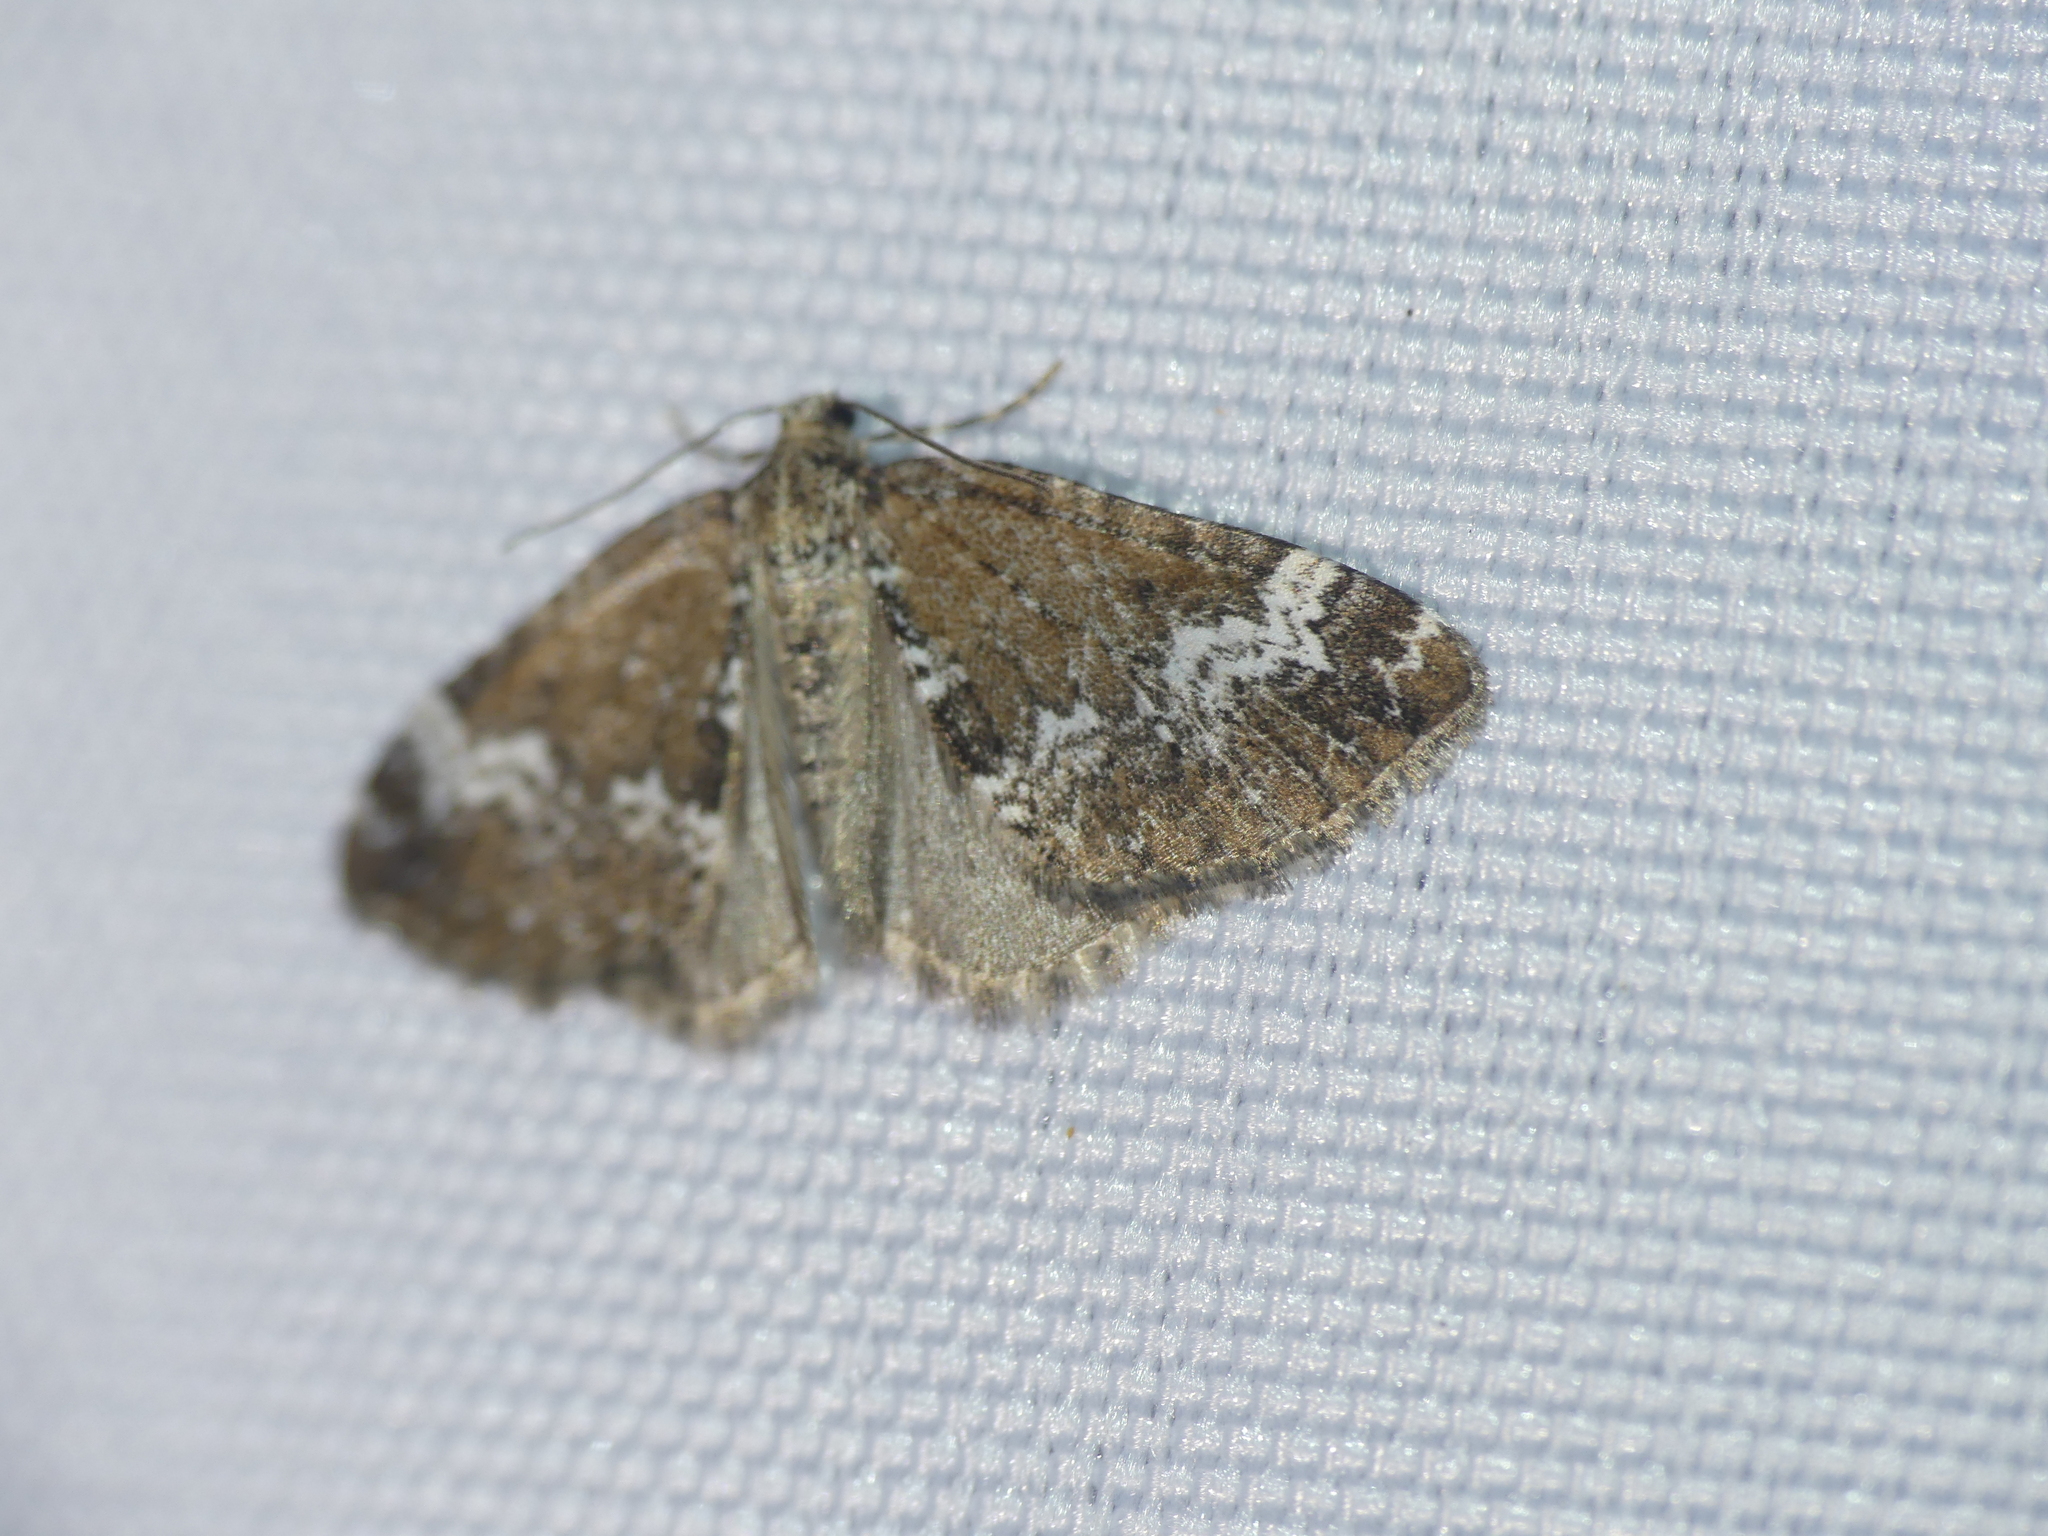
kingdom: Animalia
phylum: Arthropoda
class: Insecta
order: Lepidoptera
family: Geometridae
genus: Perizoma
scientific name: Perizoma alchemillata
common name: Small rivulet
